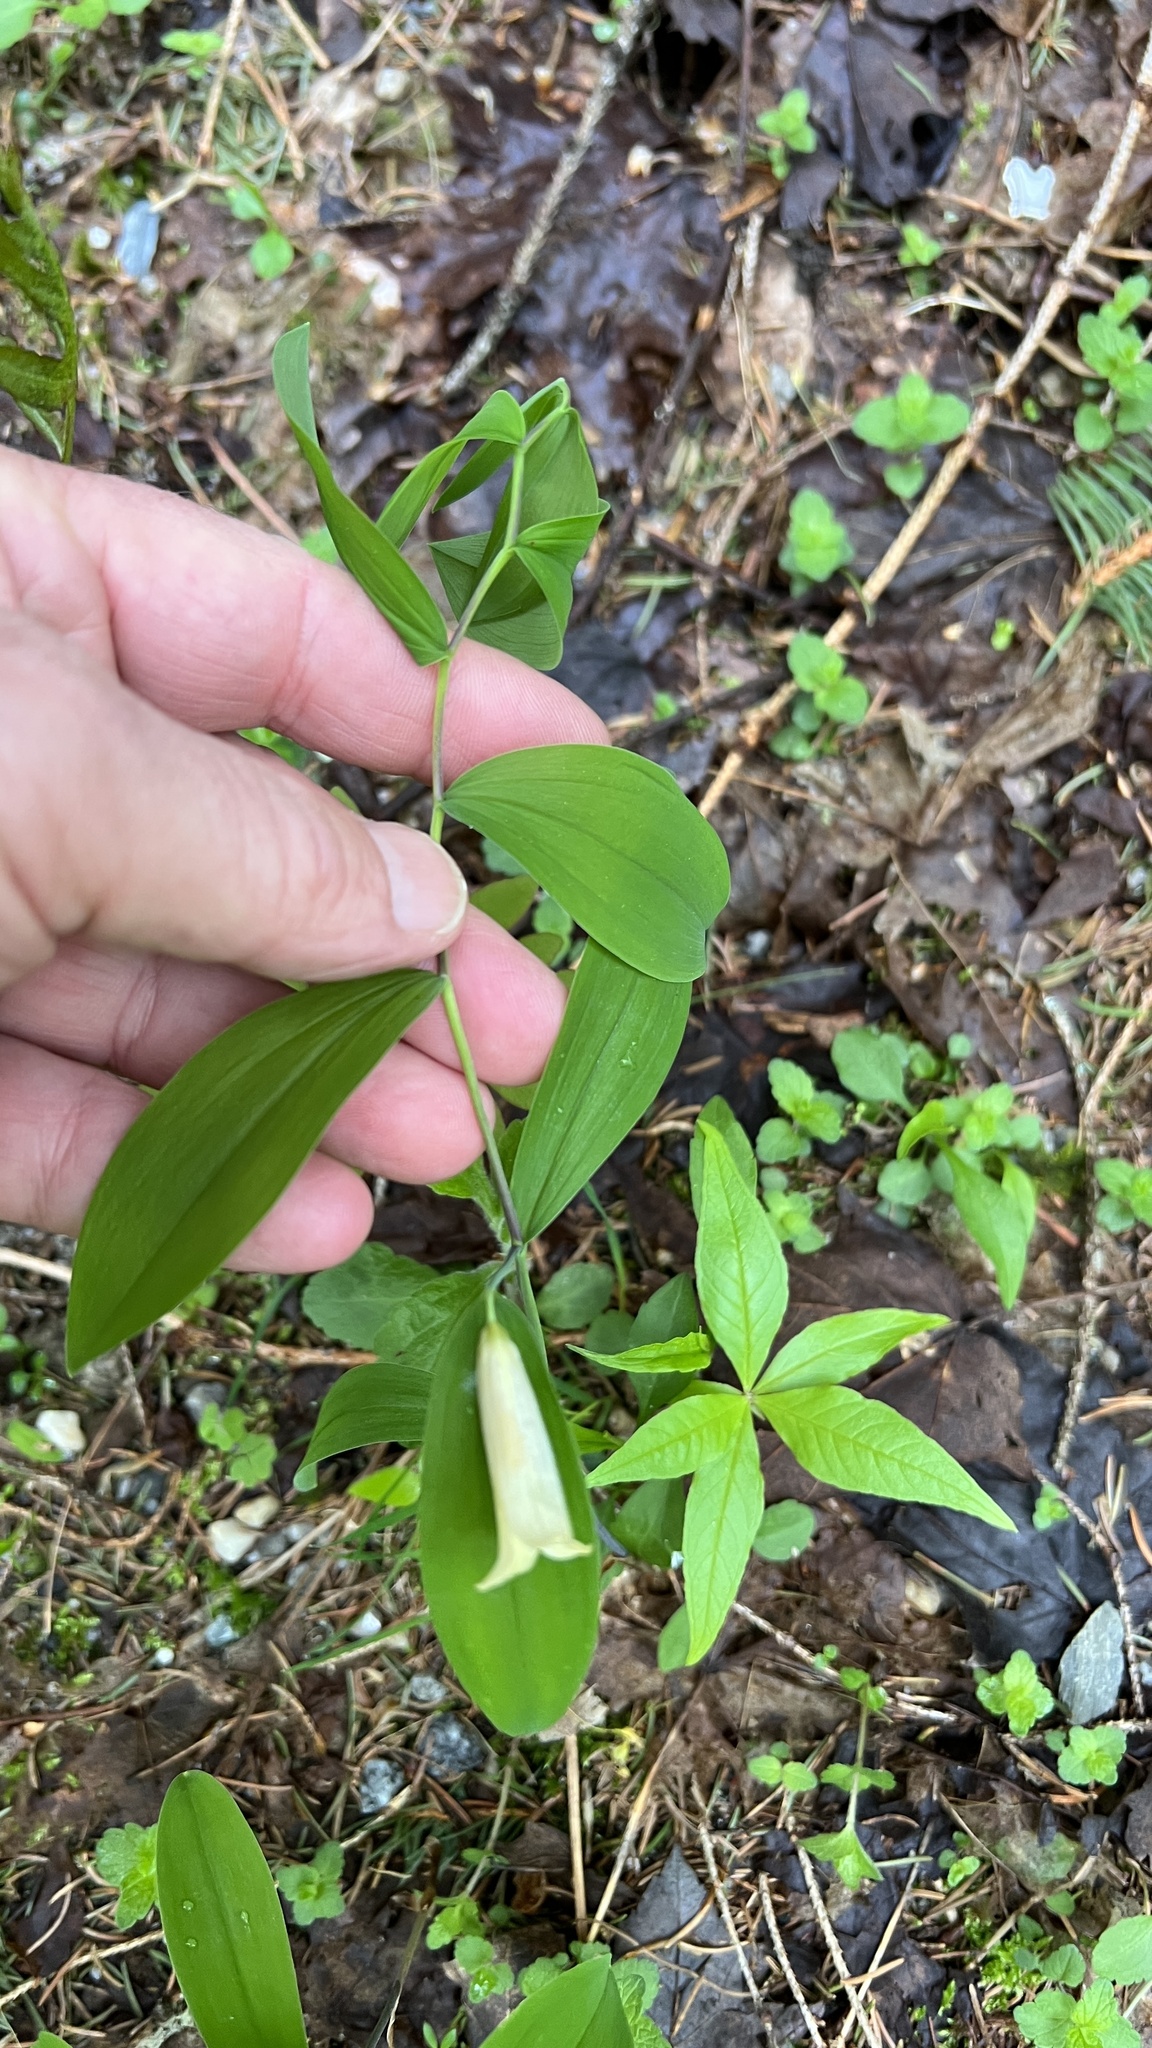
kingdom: Plantae
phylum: Tracheophyta
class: Liliopsida
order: Liliales
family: Colchicaceae
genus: Uvularia
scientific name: Uvularia sessilifolia
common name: Straw-lily
